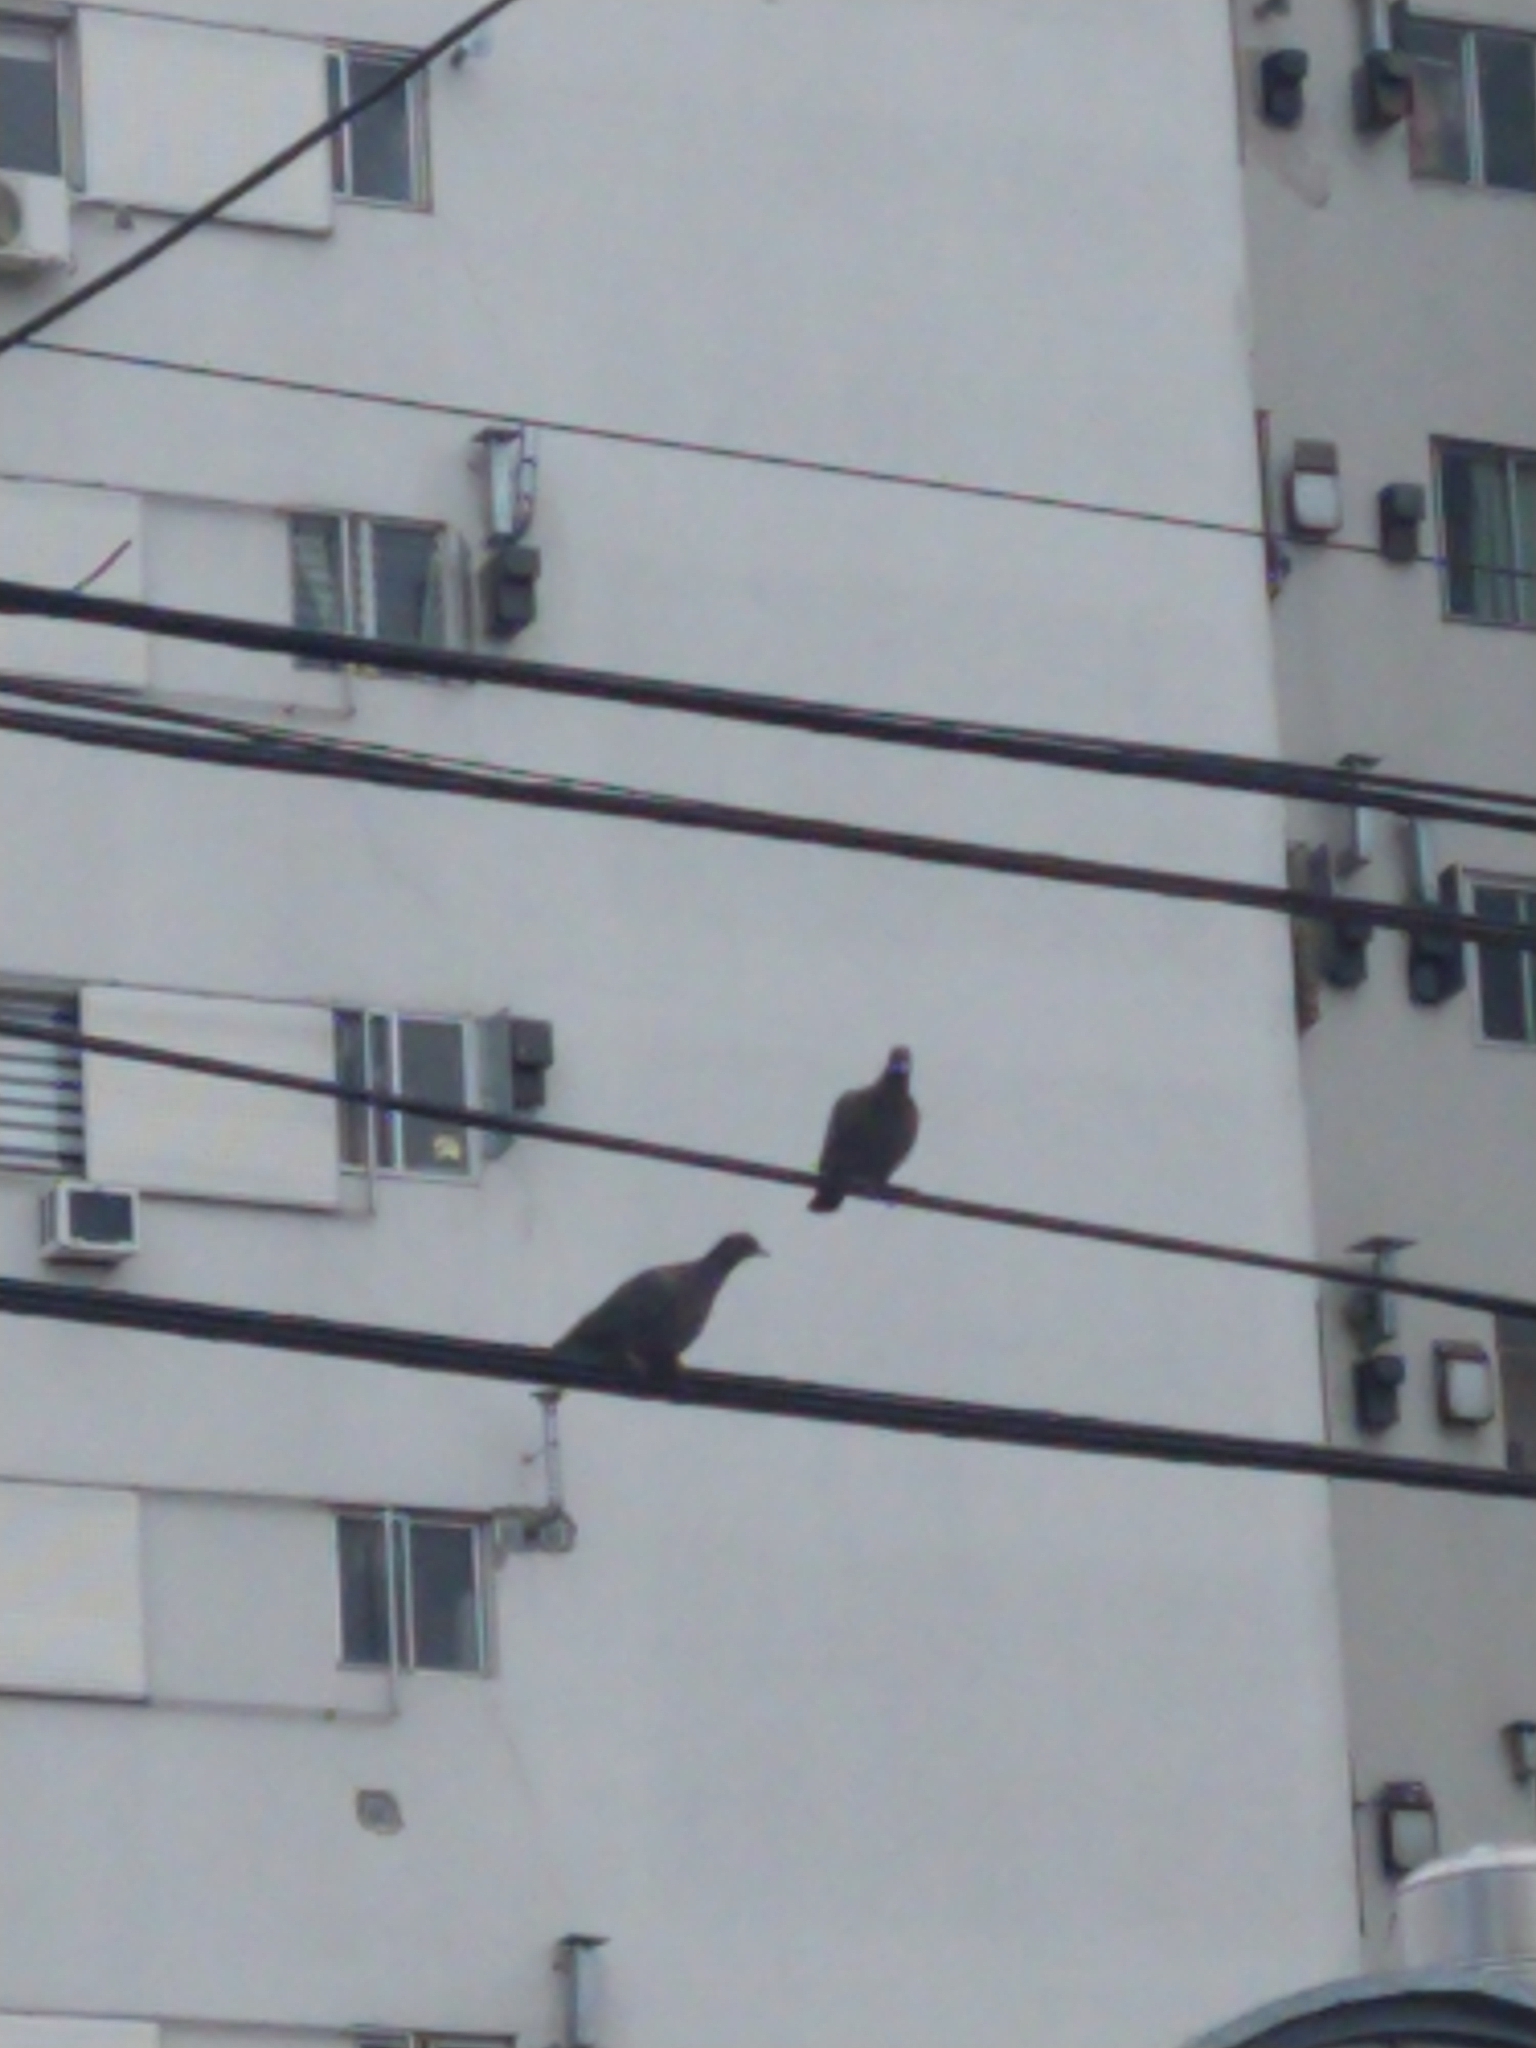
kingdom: Animalia
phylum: Chordata
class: Aves
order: Columbiformes
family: Columbidae
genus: Patagioenas
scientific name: Patagioenas picazuro
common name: Picazuro pigeon
